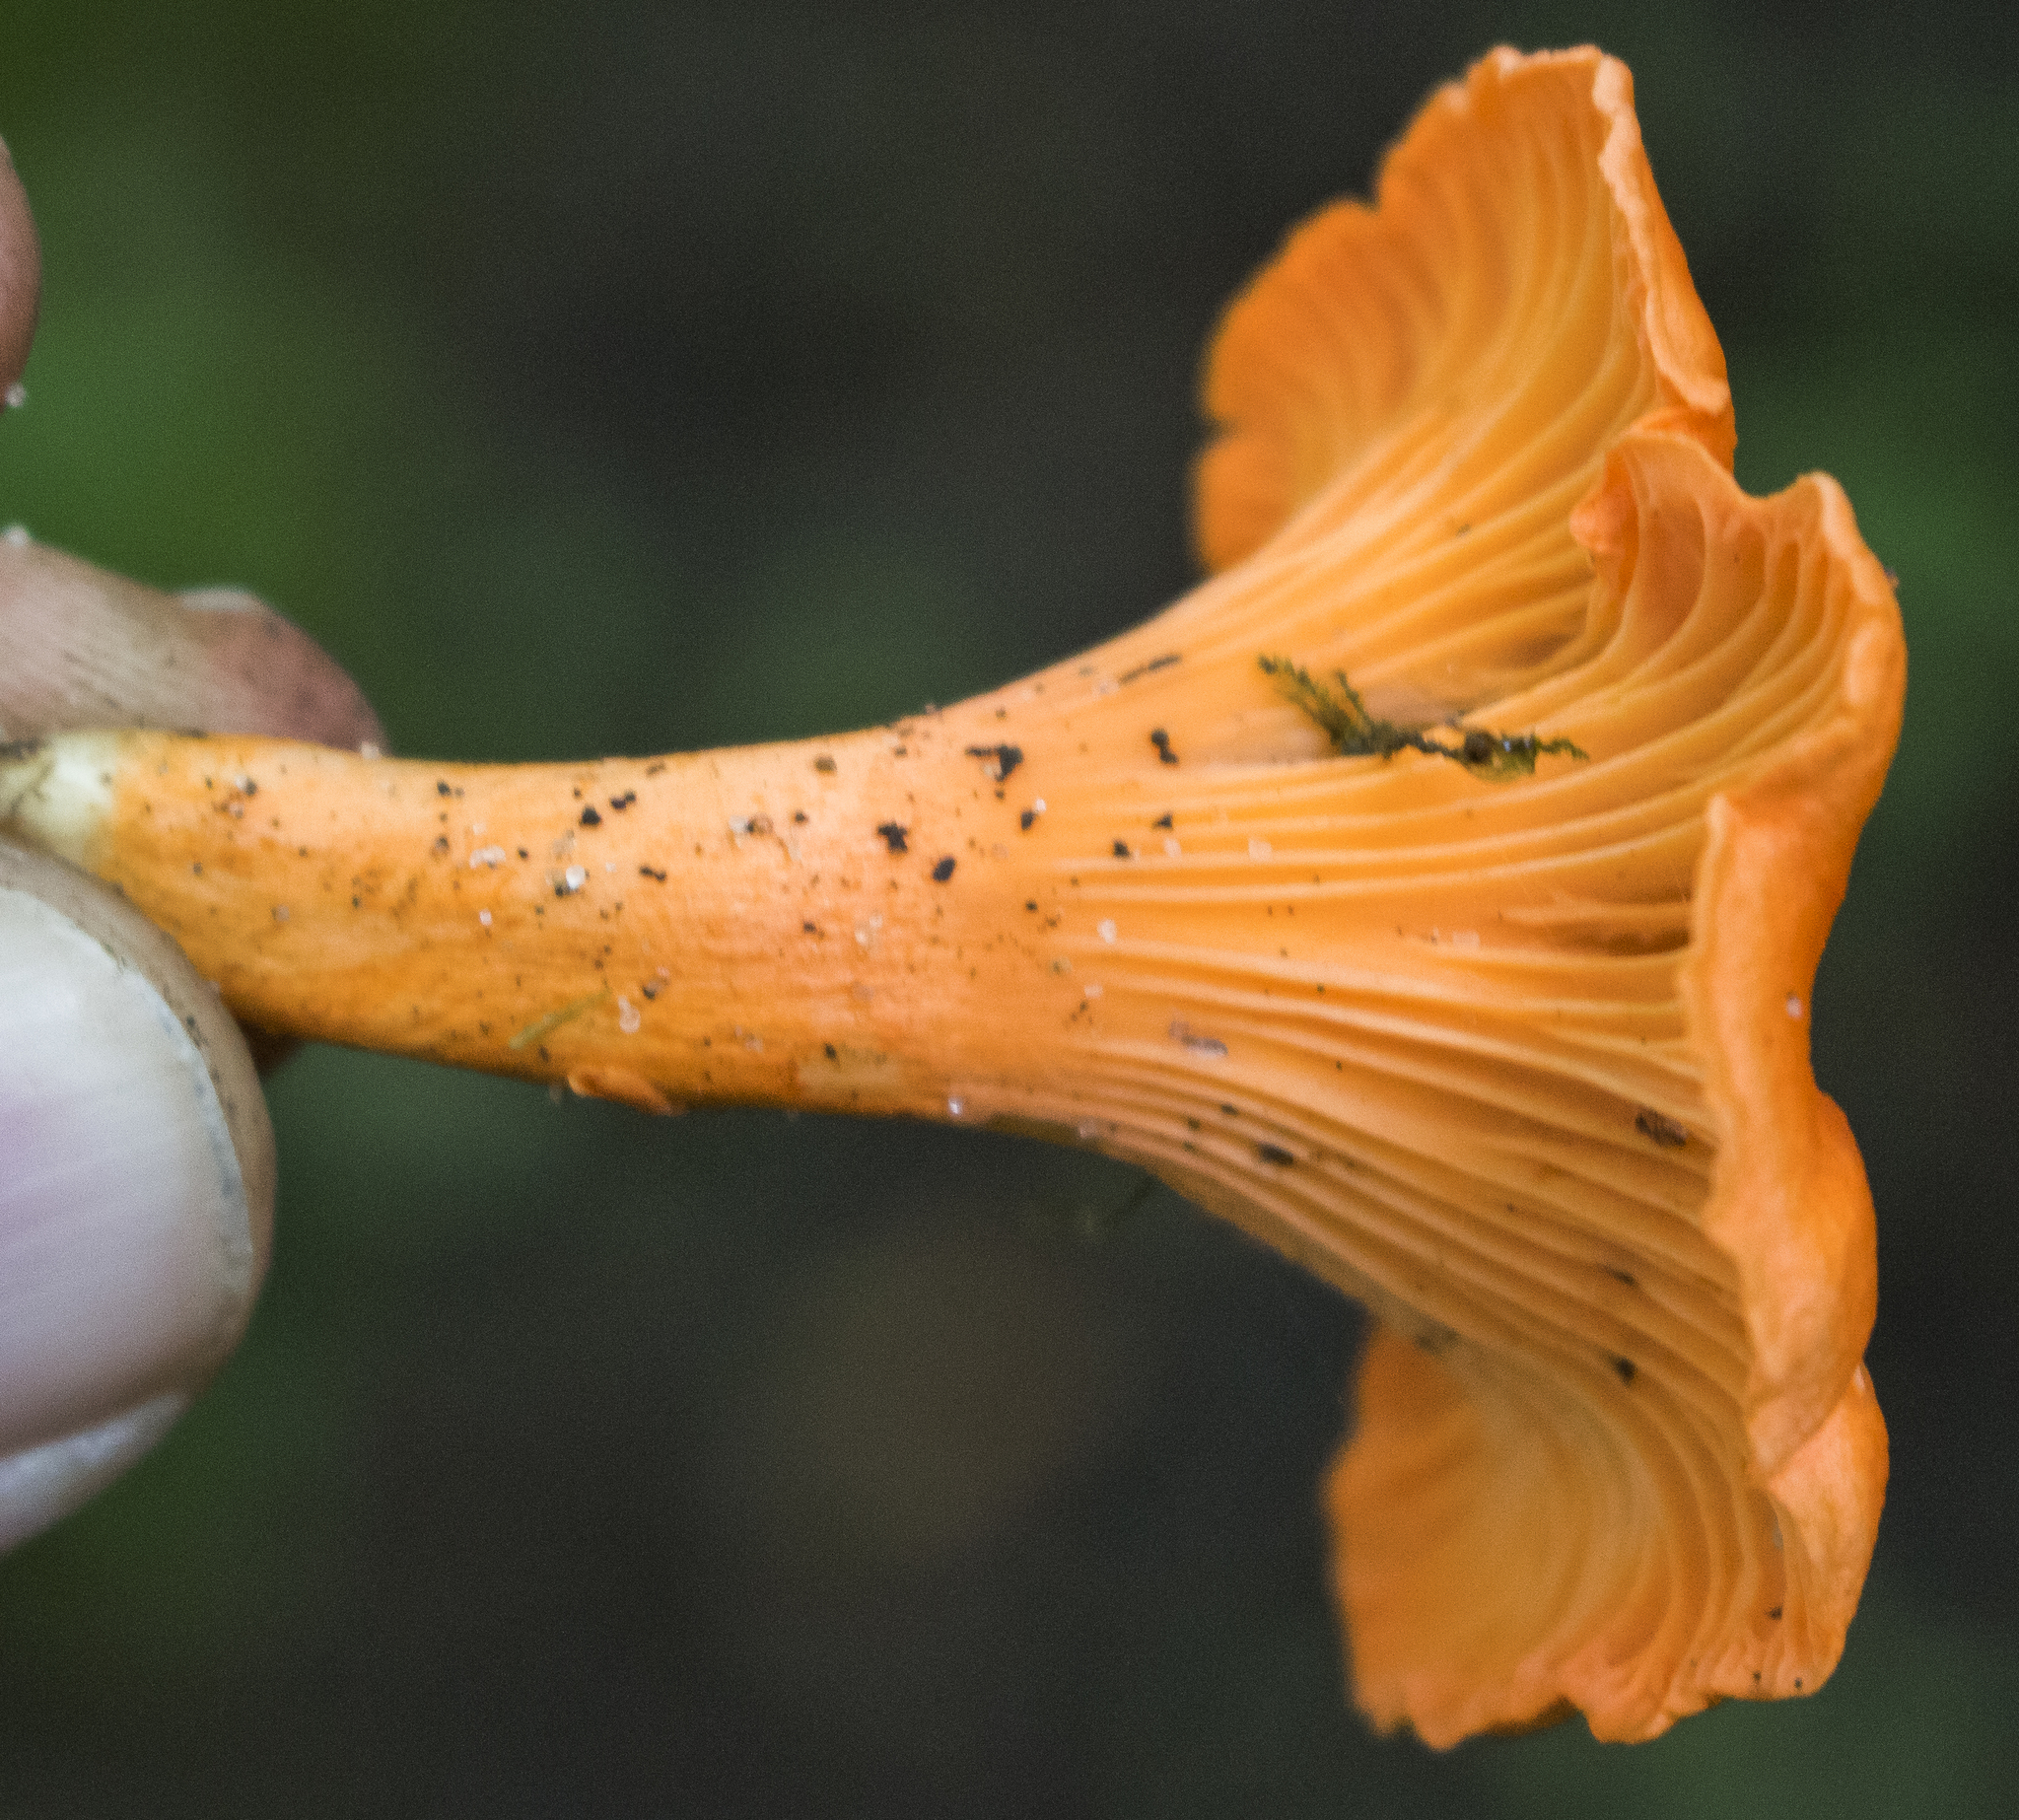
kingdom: Fungi
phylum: Basidiomycota
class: Agaricomycetes
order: Cantharellales
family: Hydnaceae
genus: Cantharellus
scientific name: Cantharellus cinnabarinus
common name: Cinnabar chanterelle
